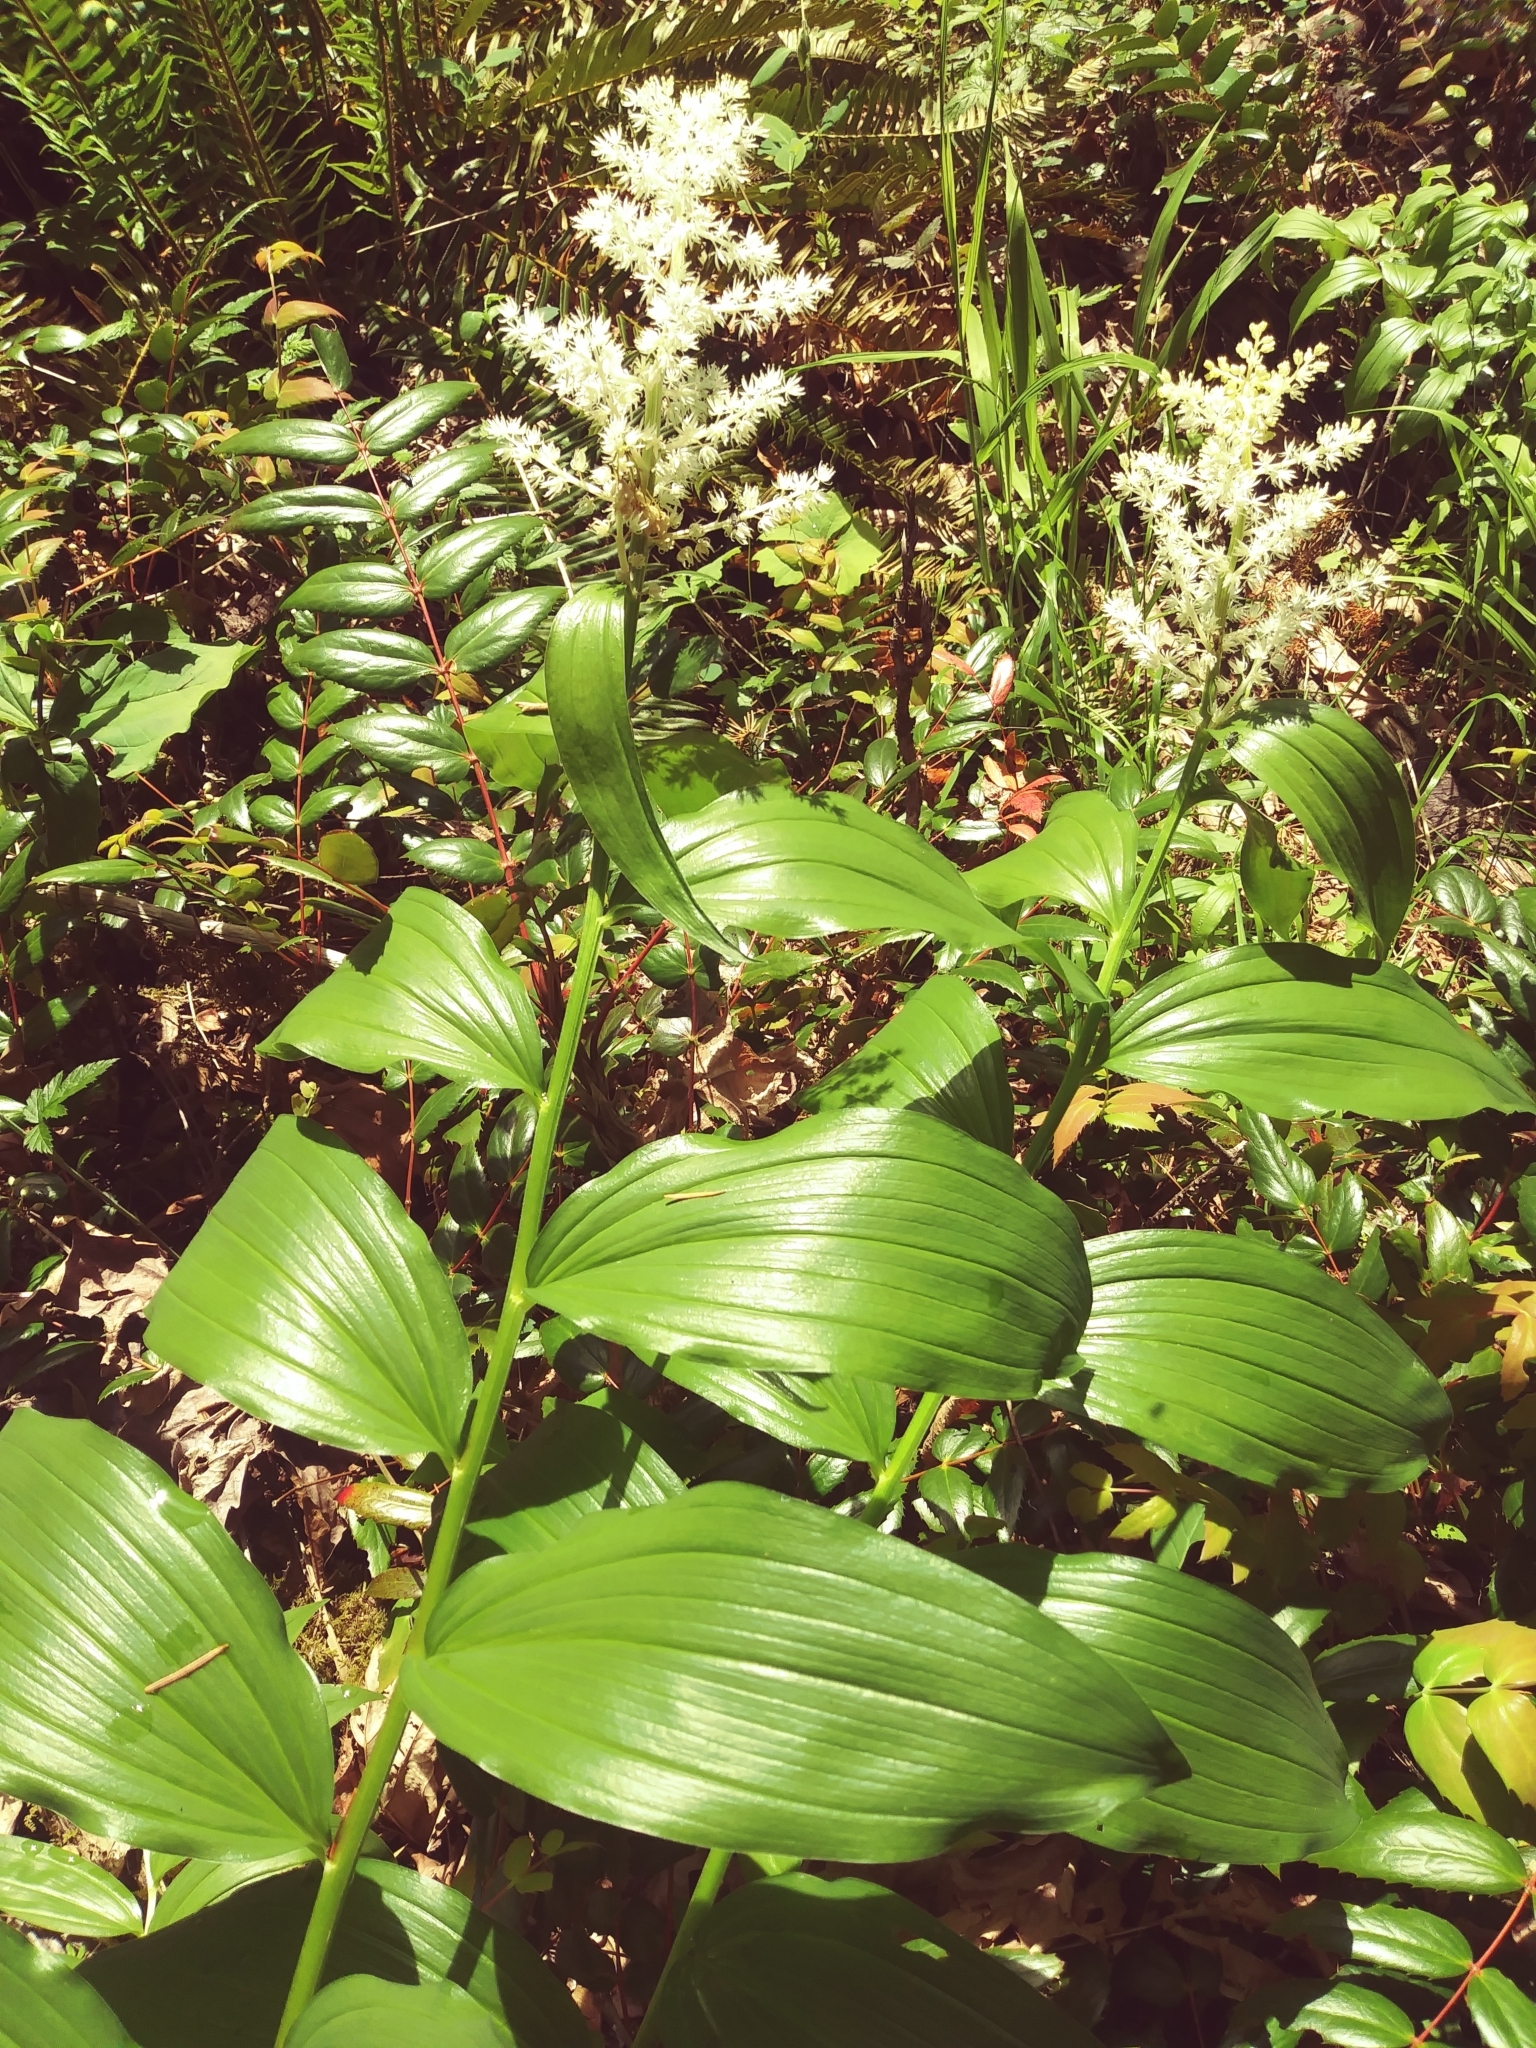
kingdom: Plantae
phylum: Tracheophyta
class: Liliopsida
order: Asparagales
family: Asparagaceae
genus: Maianthemum
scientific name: Maianthemum racemosum
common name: False spikenard
